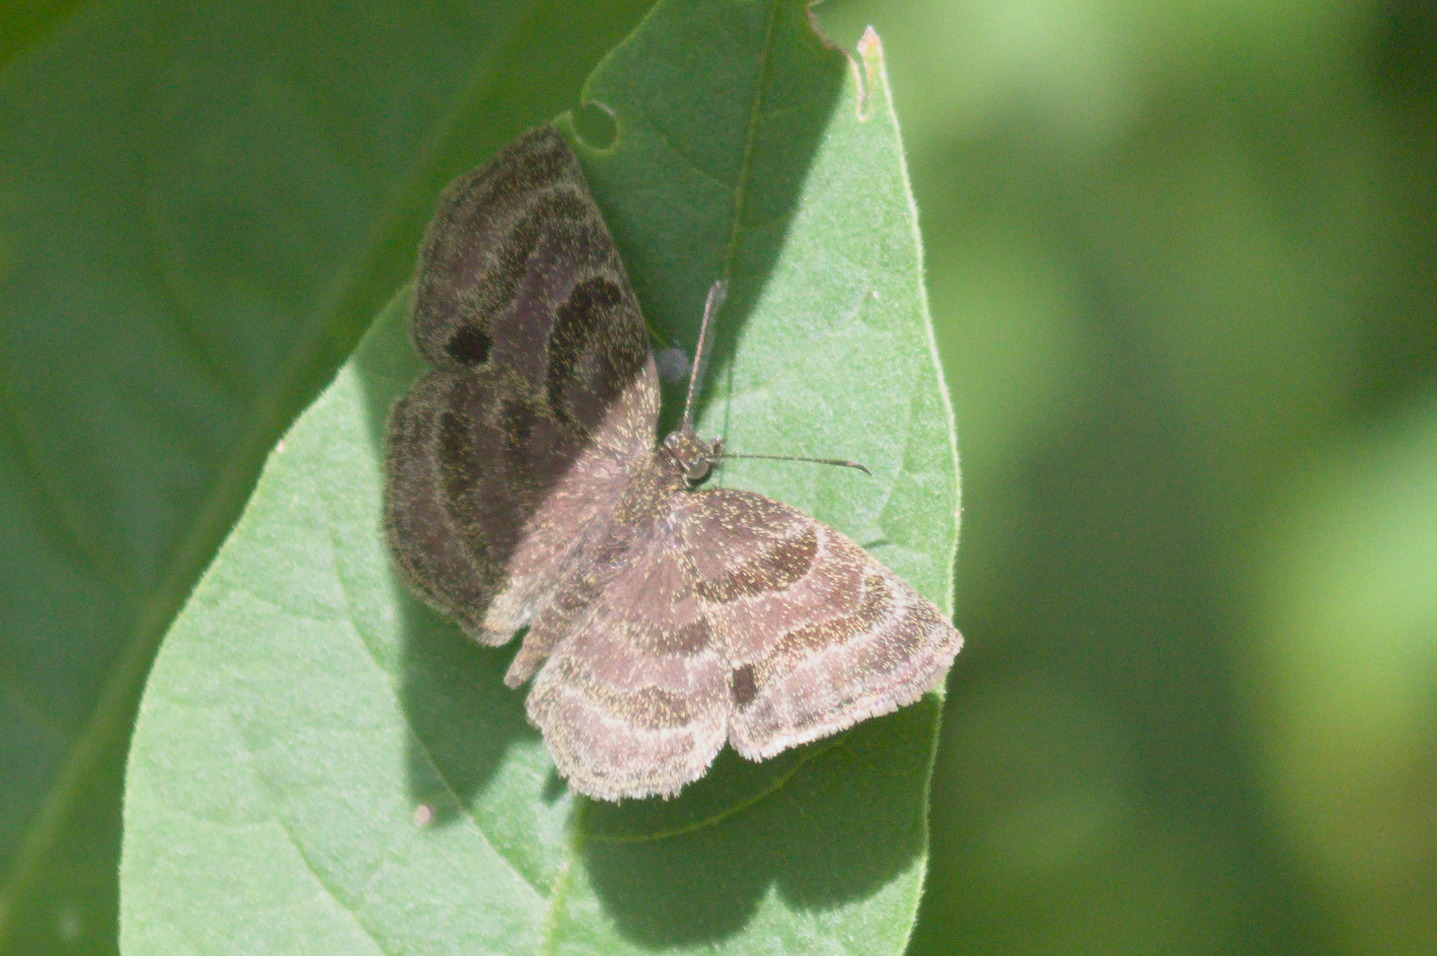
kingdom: Animalia
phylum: Arthropoda
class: Insecta
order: Lepidoptera
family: Hesperiidae
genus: Trina
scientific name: Trina geometrina
